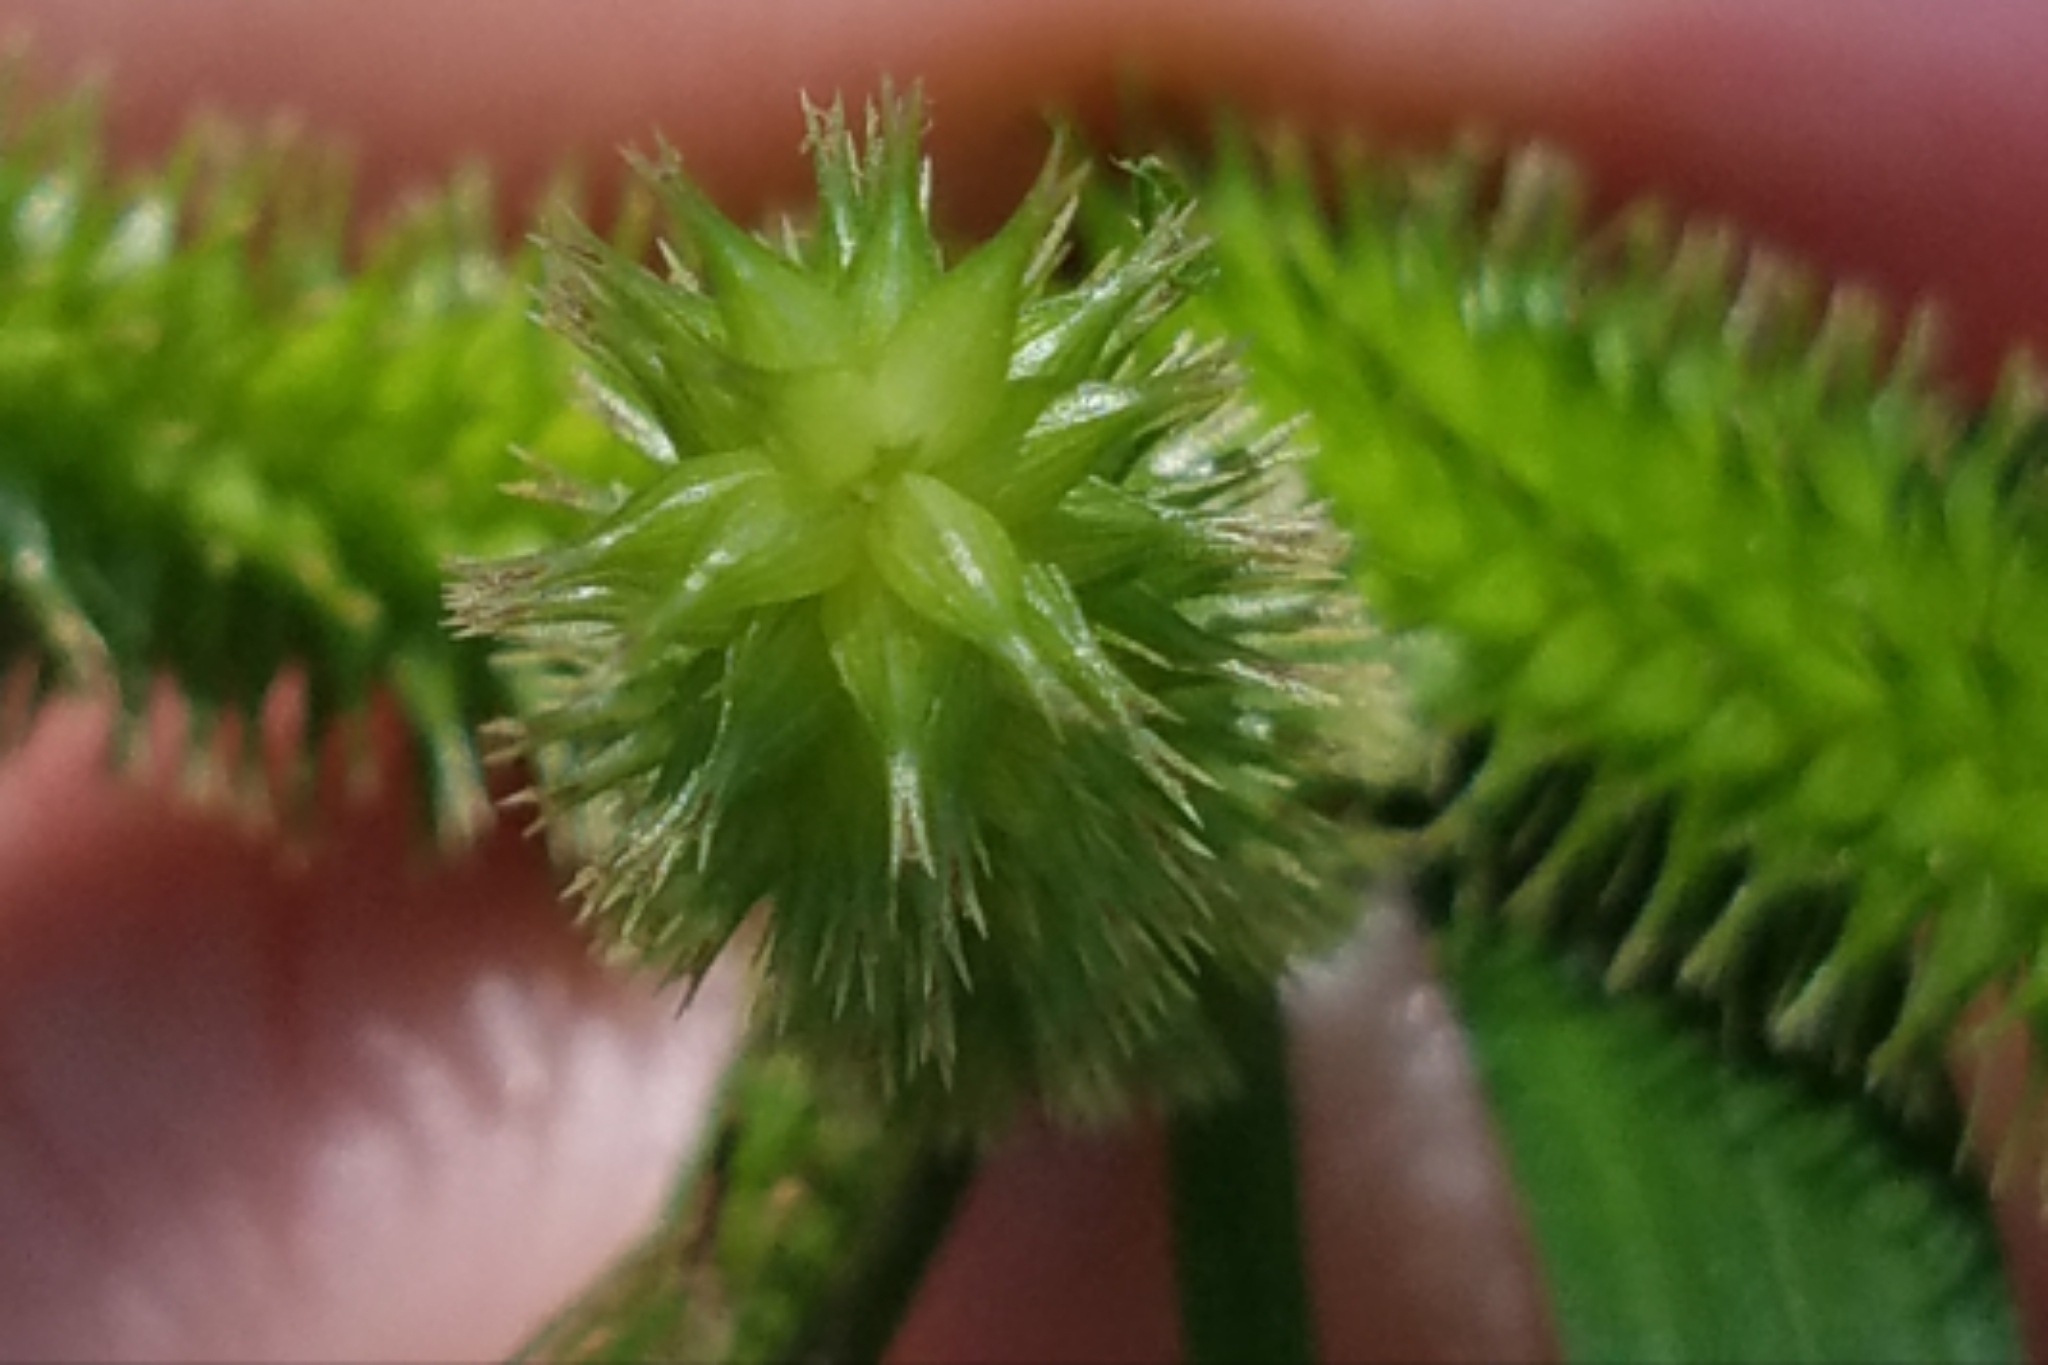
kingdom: Plantae
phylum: Tracheophyta
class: Liliopsida
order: Poales
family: Cyperaceae
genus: Carex
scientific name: Carex pseudocyperus
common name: Cyperus sedge
